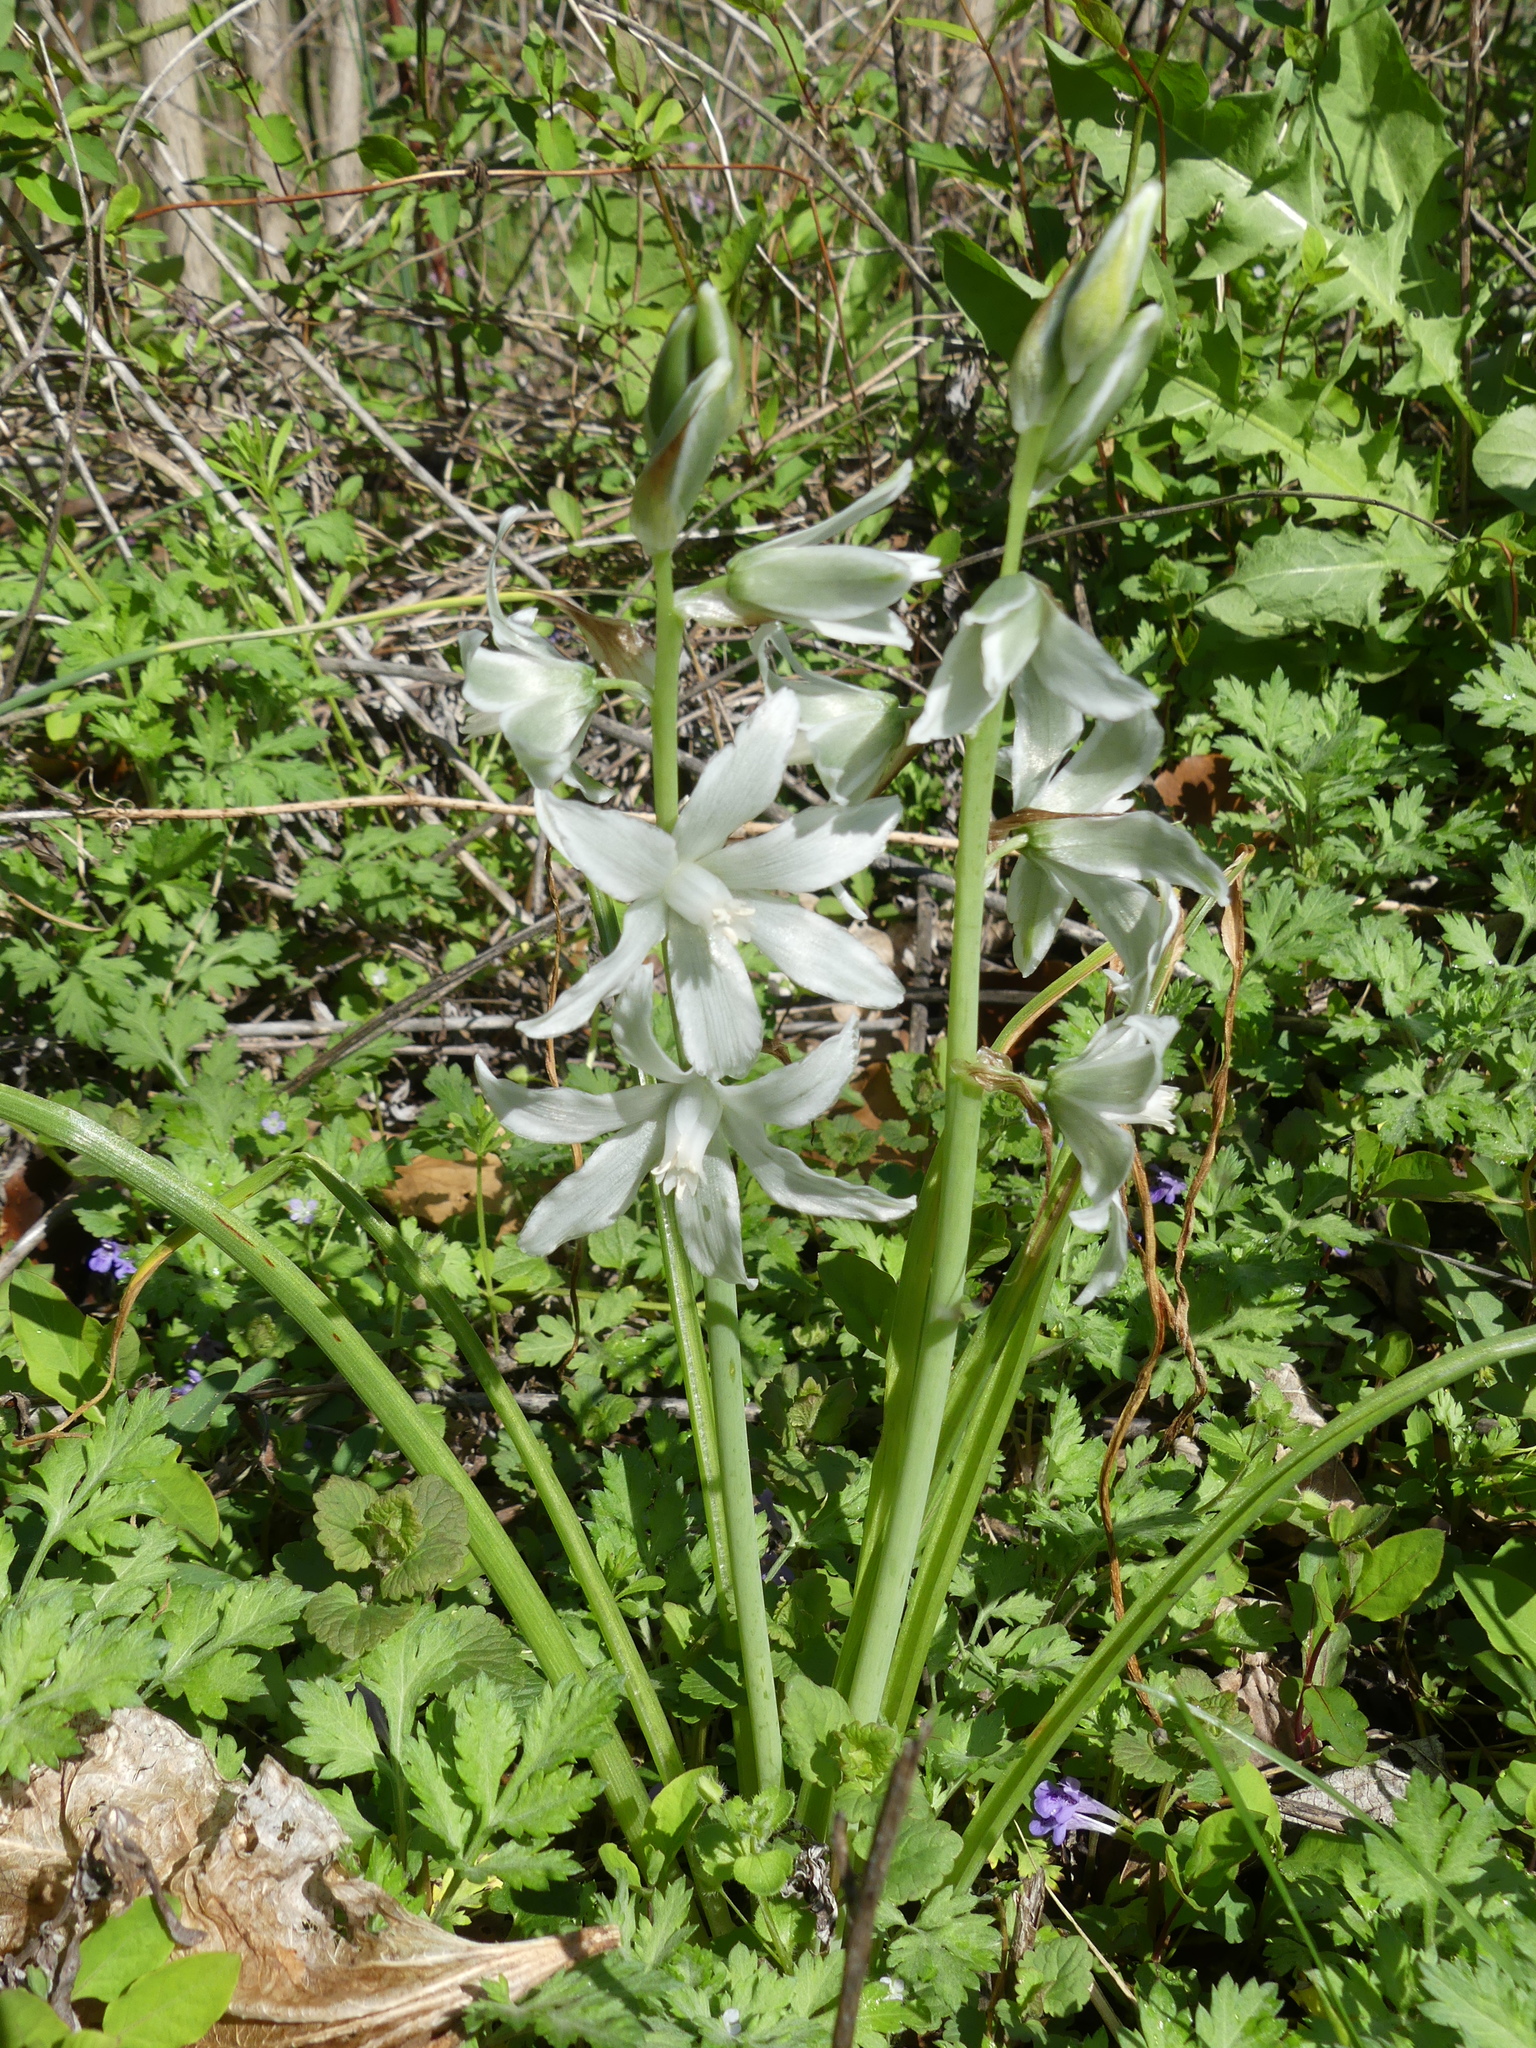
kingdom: Plantae
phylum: Tracheophyta
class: Liliopsida
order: Asparagales
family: Asparagaceae
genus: Ornithogalum
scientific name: Ornithogalum nutans
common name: Drooping star-of-bethlehem
